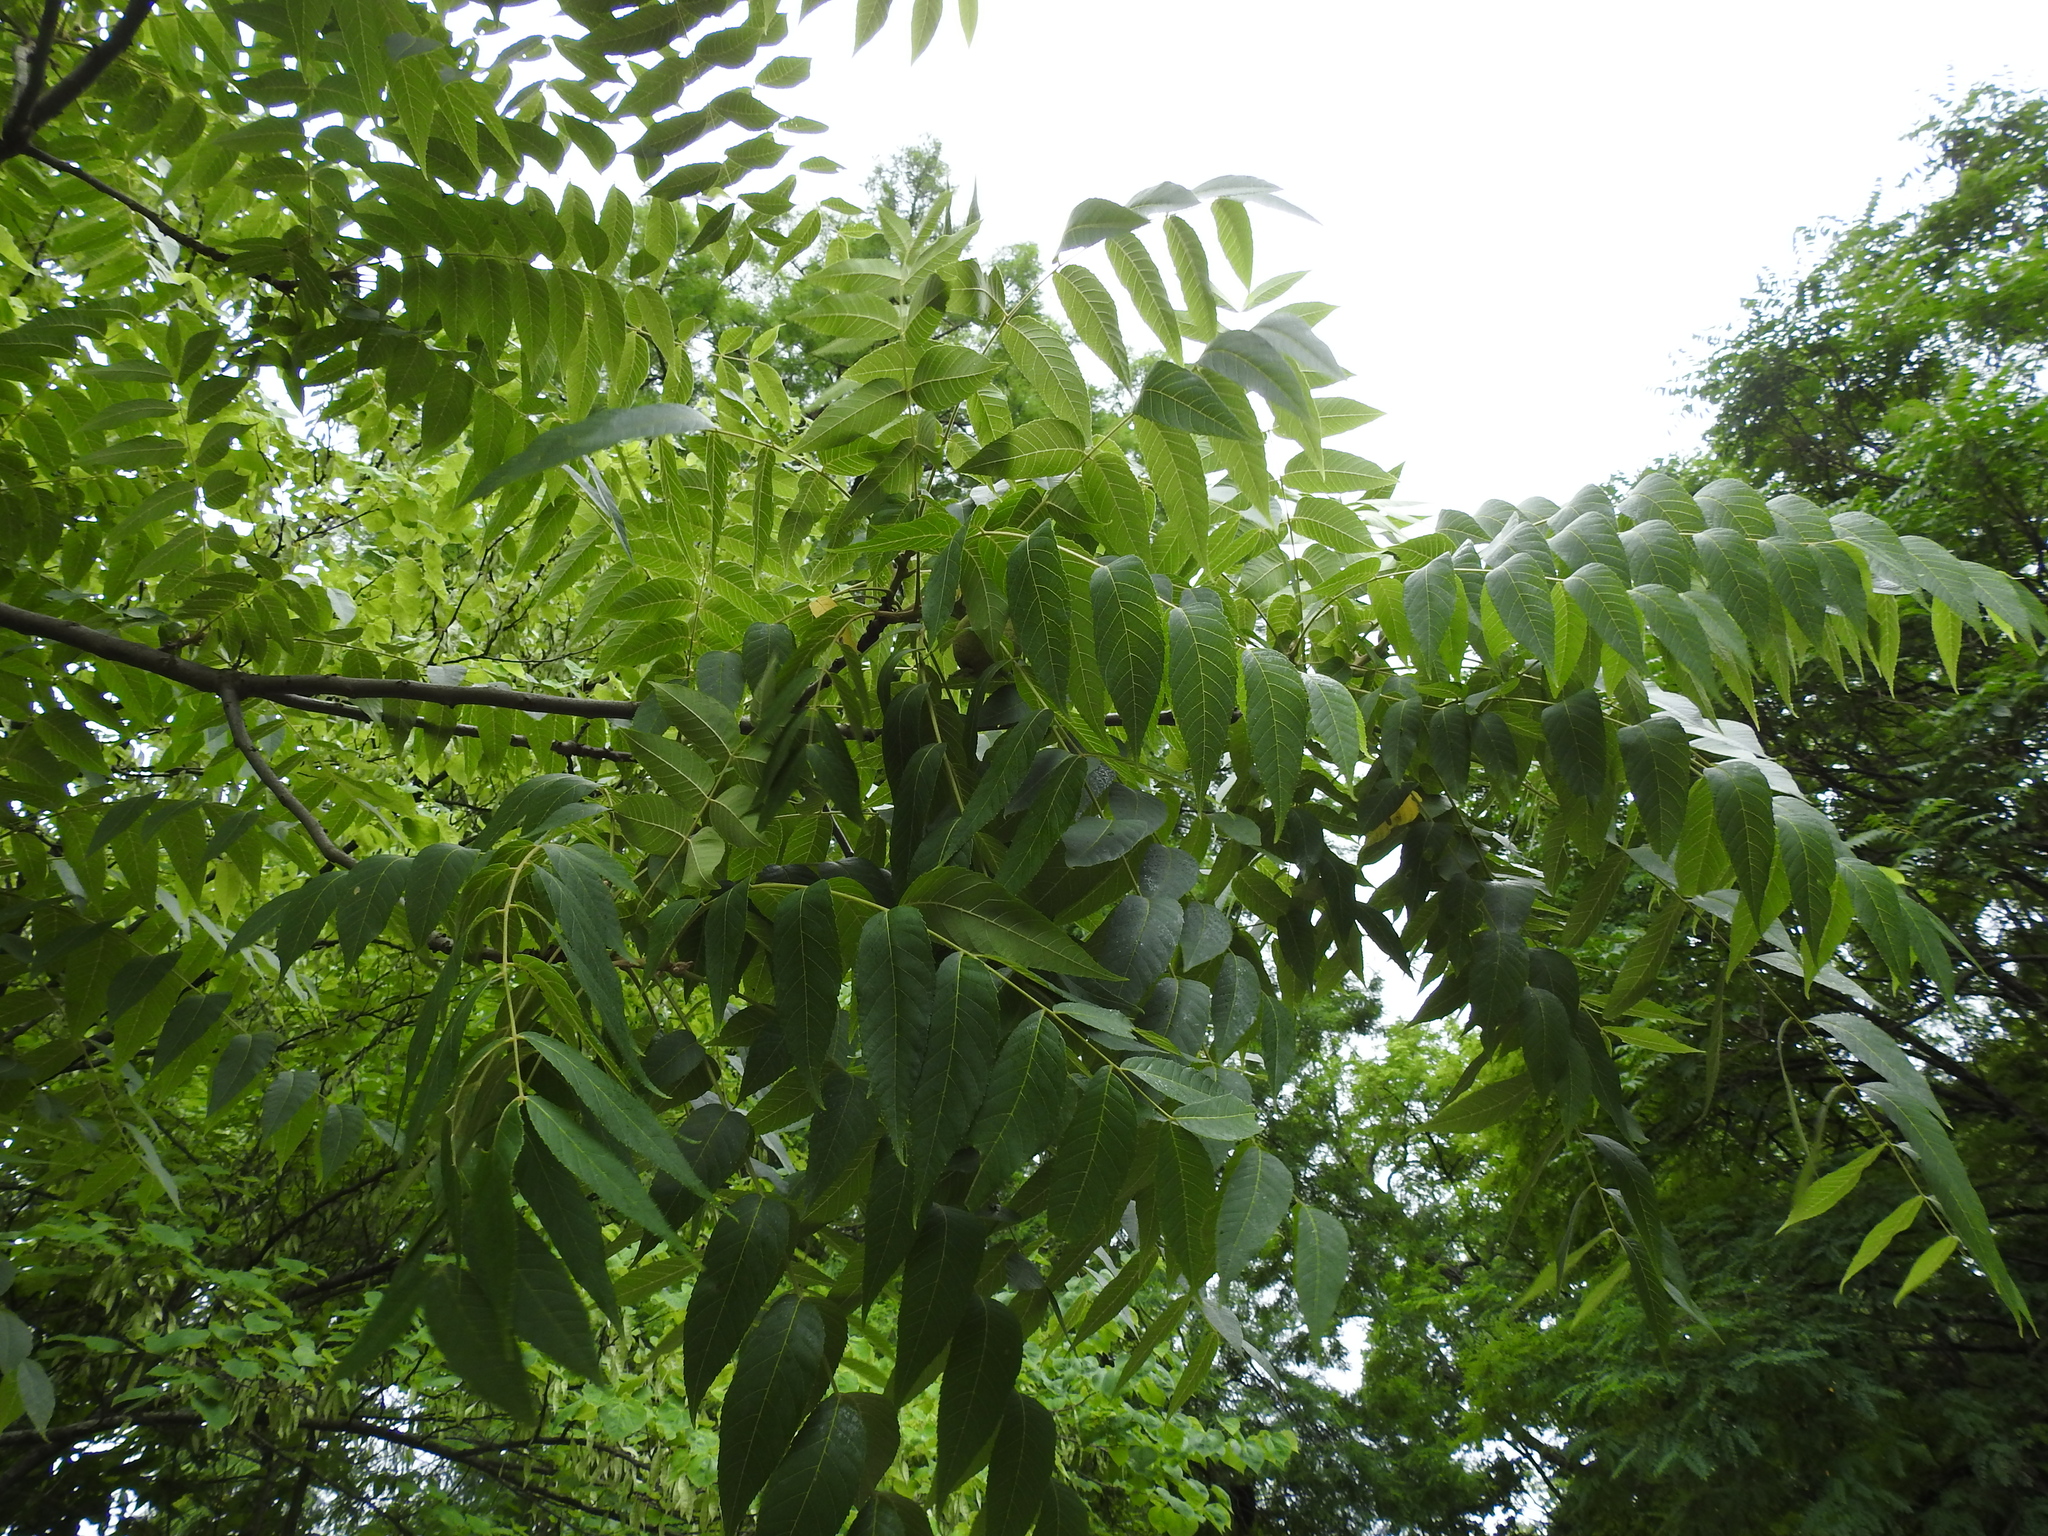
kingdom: Plantae
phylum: Tracheophyta
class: Magnoliopsida
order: Fagales
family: Juglandaceae
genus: Juglans
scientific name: Juglans nigra
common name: Black walnut
